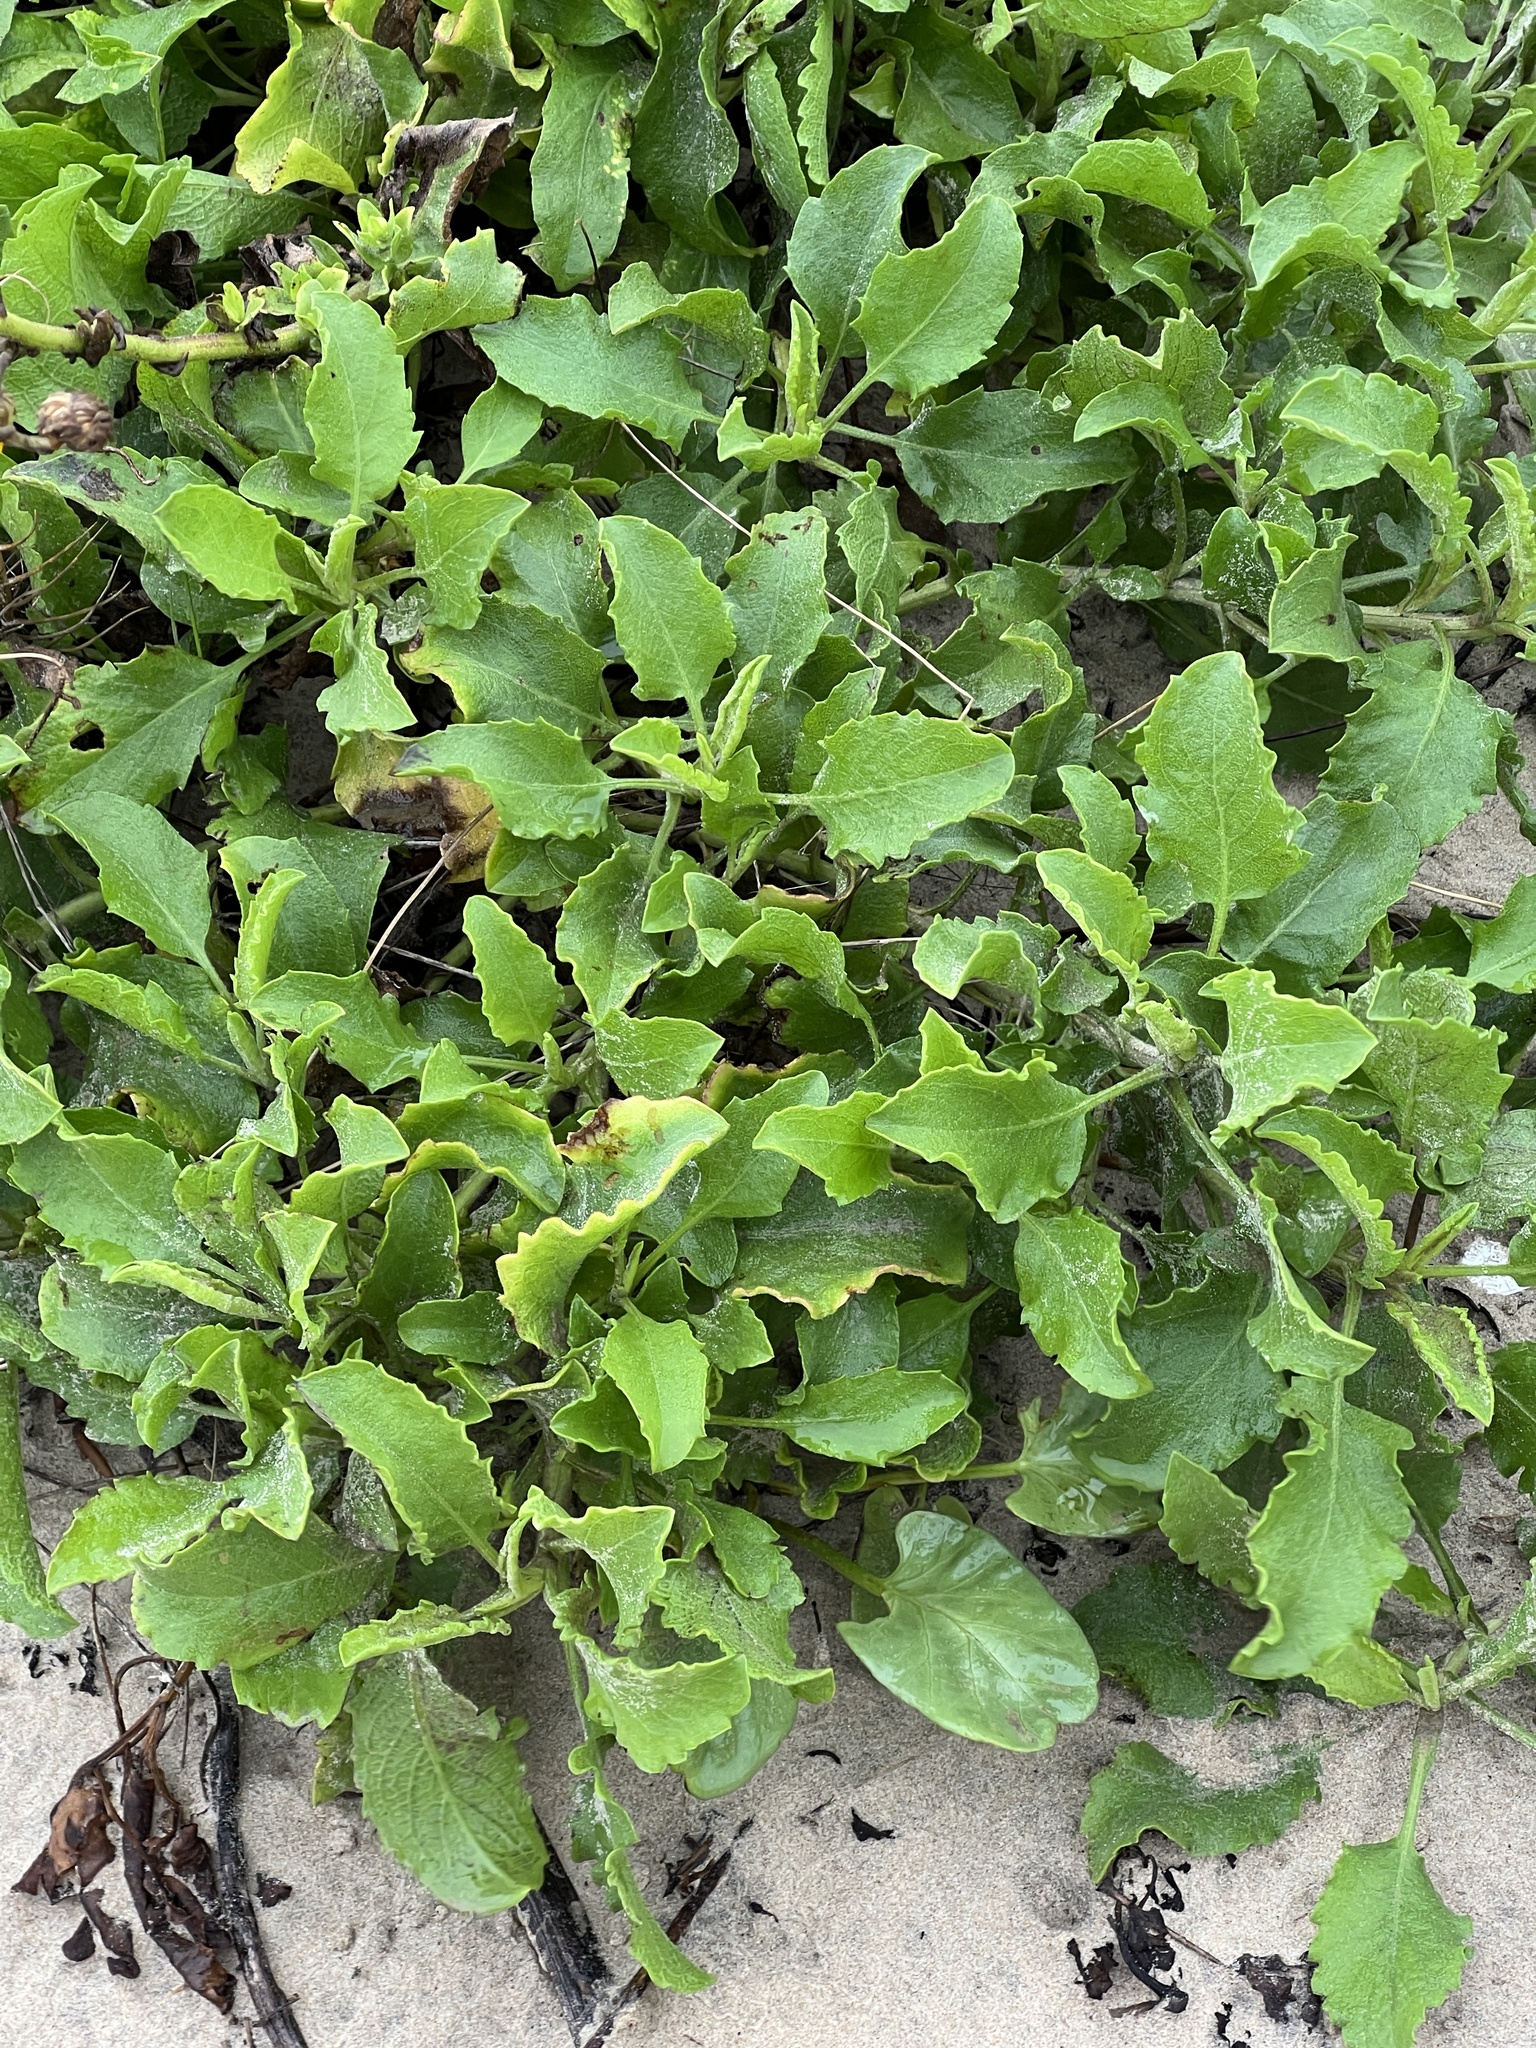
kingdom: Plantae
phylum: Tracheophyta
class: Magnoliopsida
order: Asterales
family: Asteraceae
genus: Heterotheca
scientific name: Heterotheca subaxillaris
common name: Camphorweed
